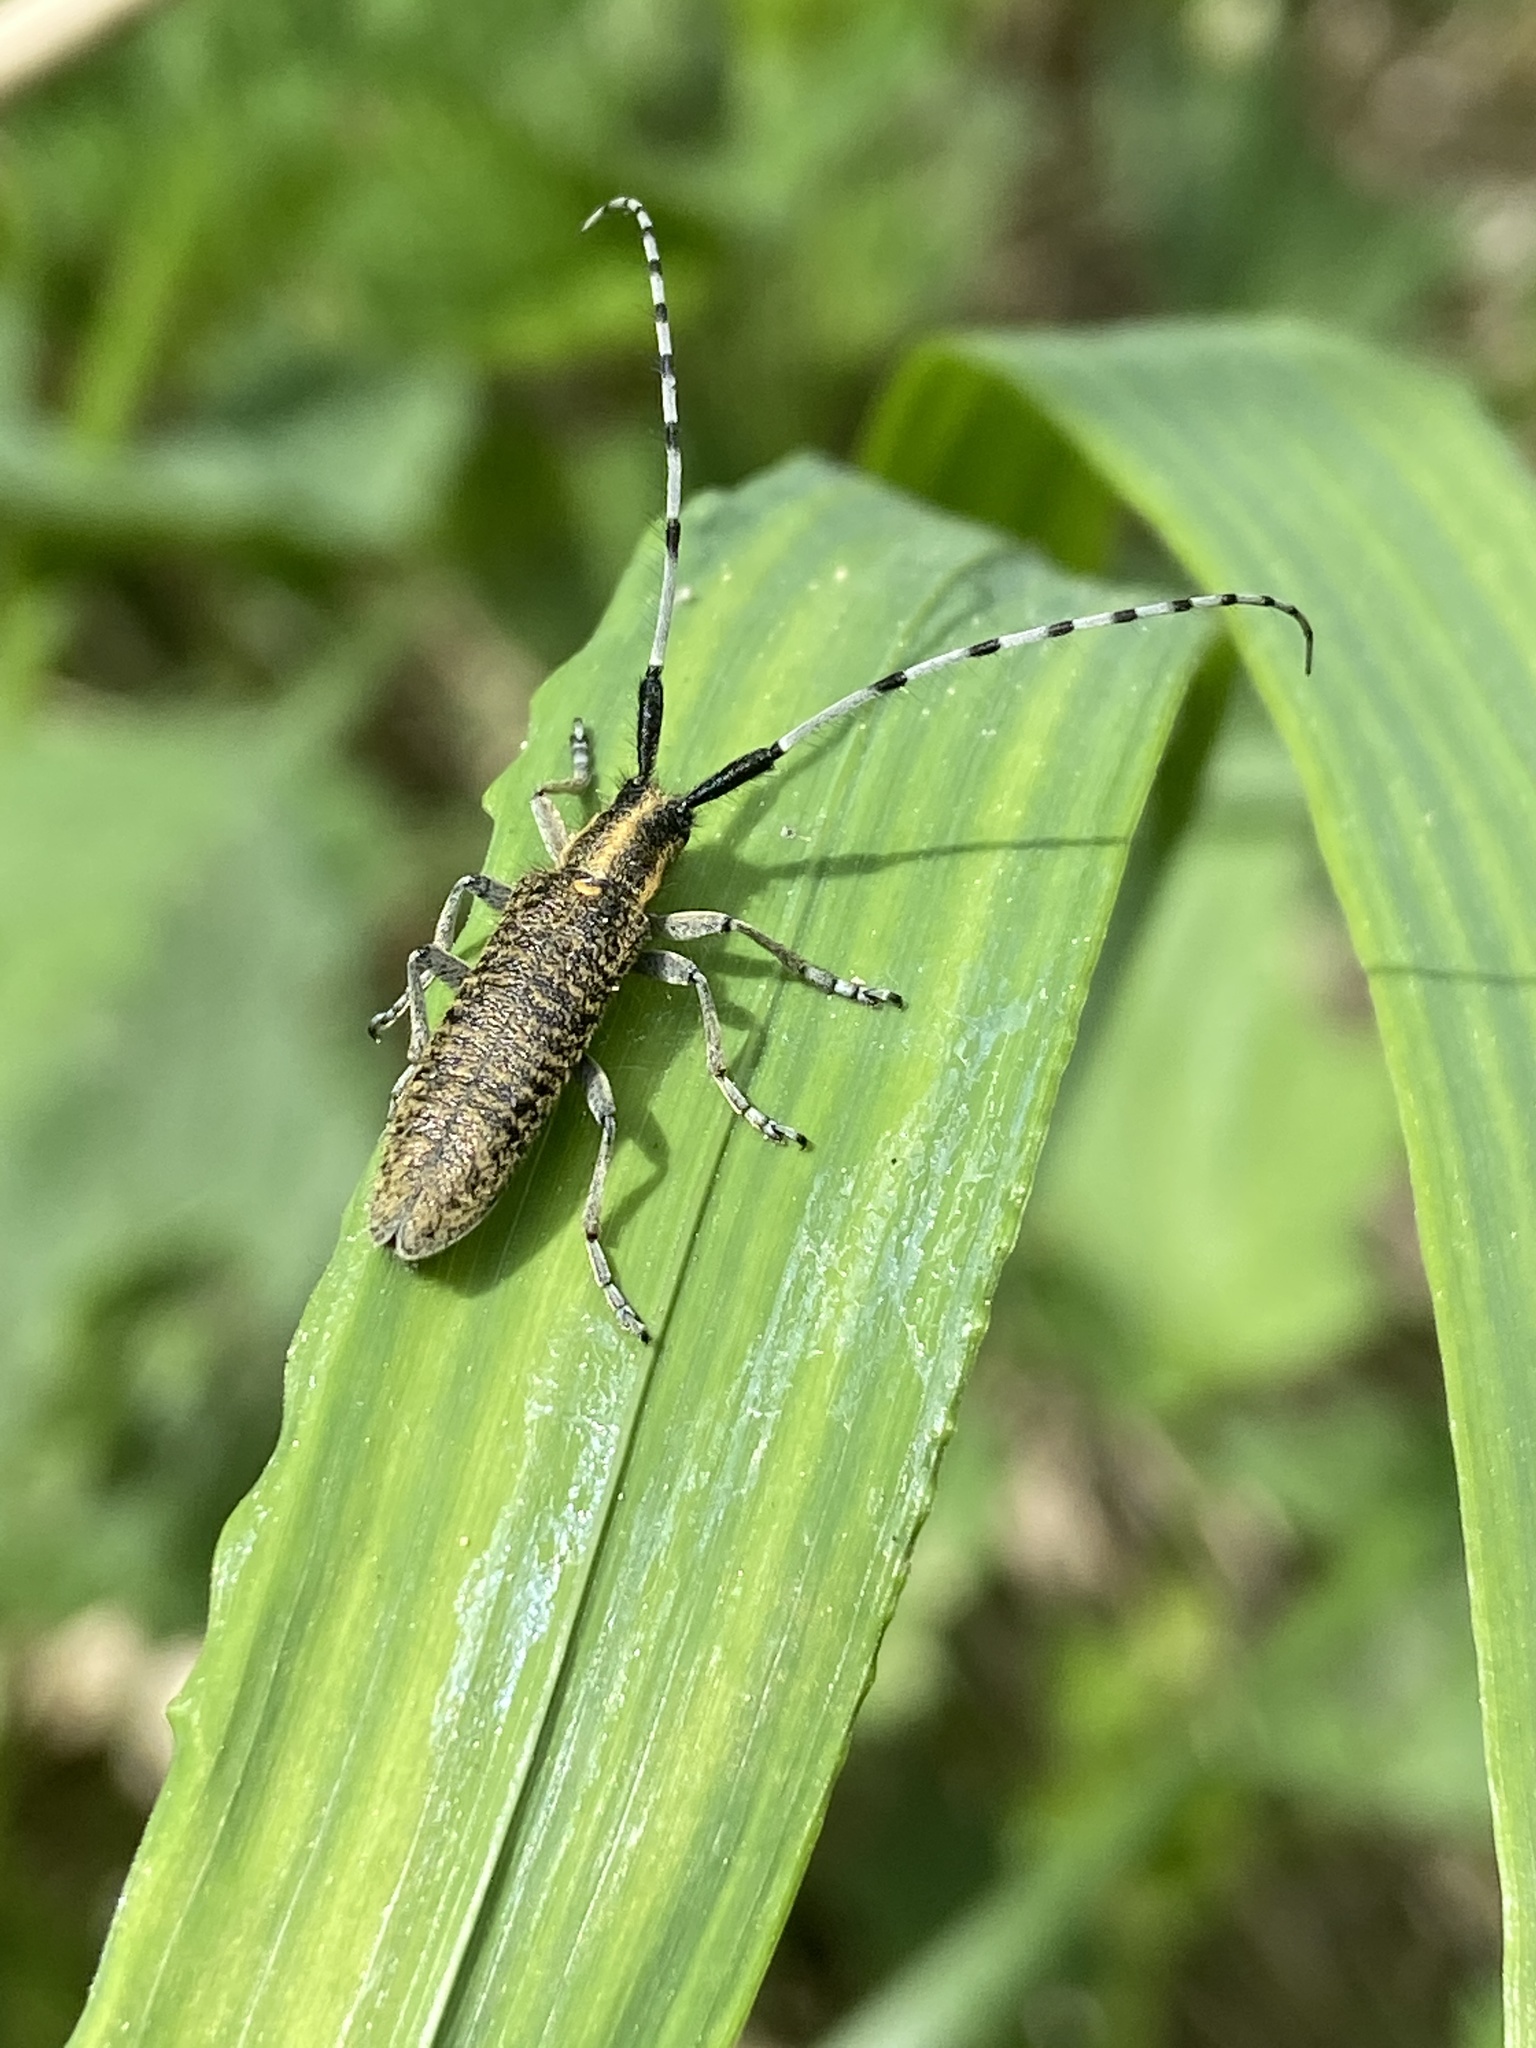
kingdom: Animalia
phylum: Arthropoda
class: Insecta
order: Coleoptera
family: Cerambycidae
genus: Agapanthia
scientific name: Agapanthia villosoviridescens
